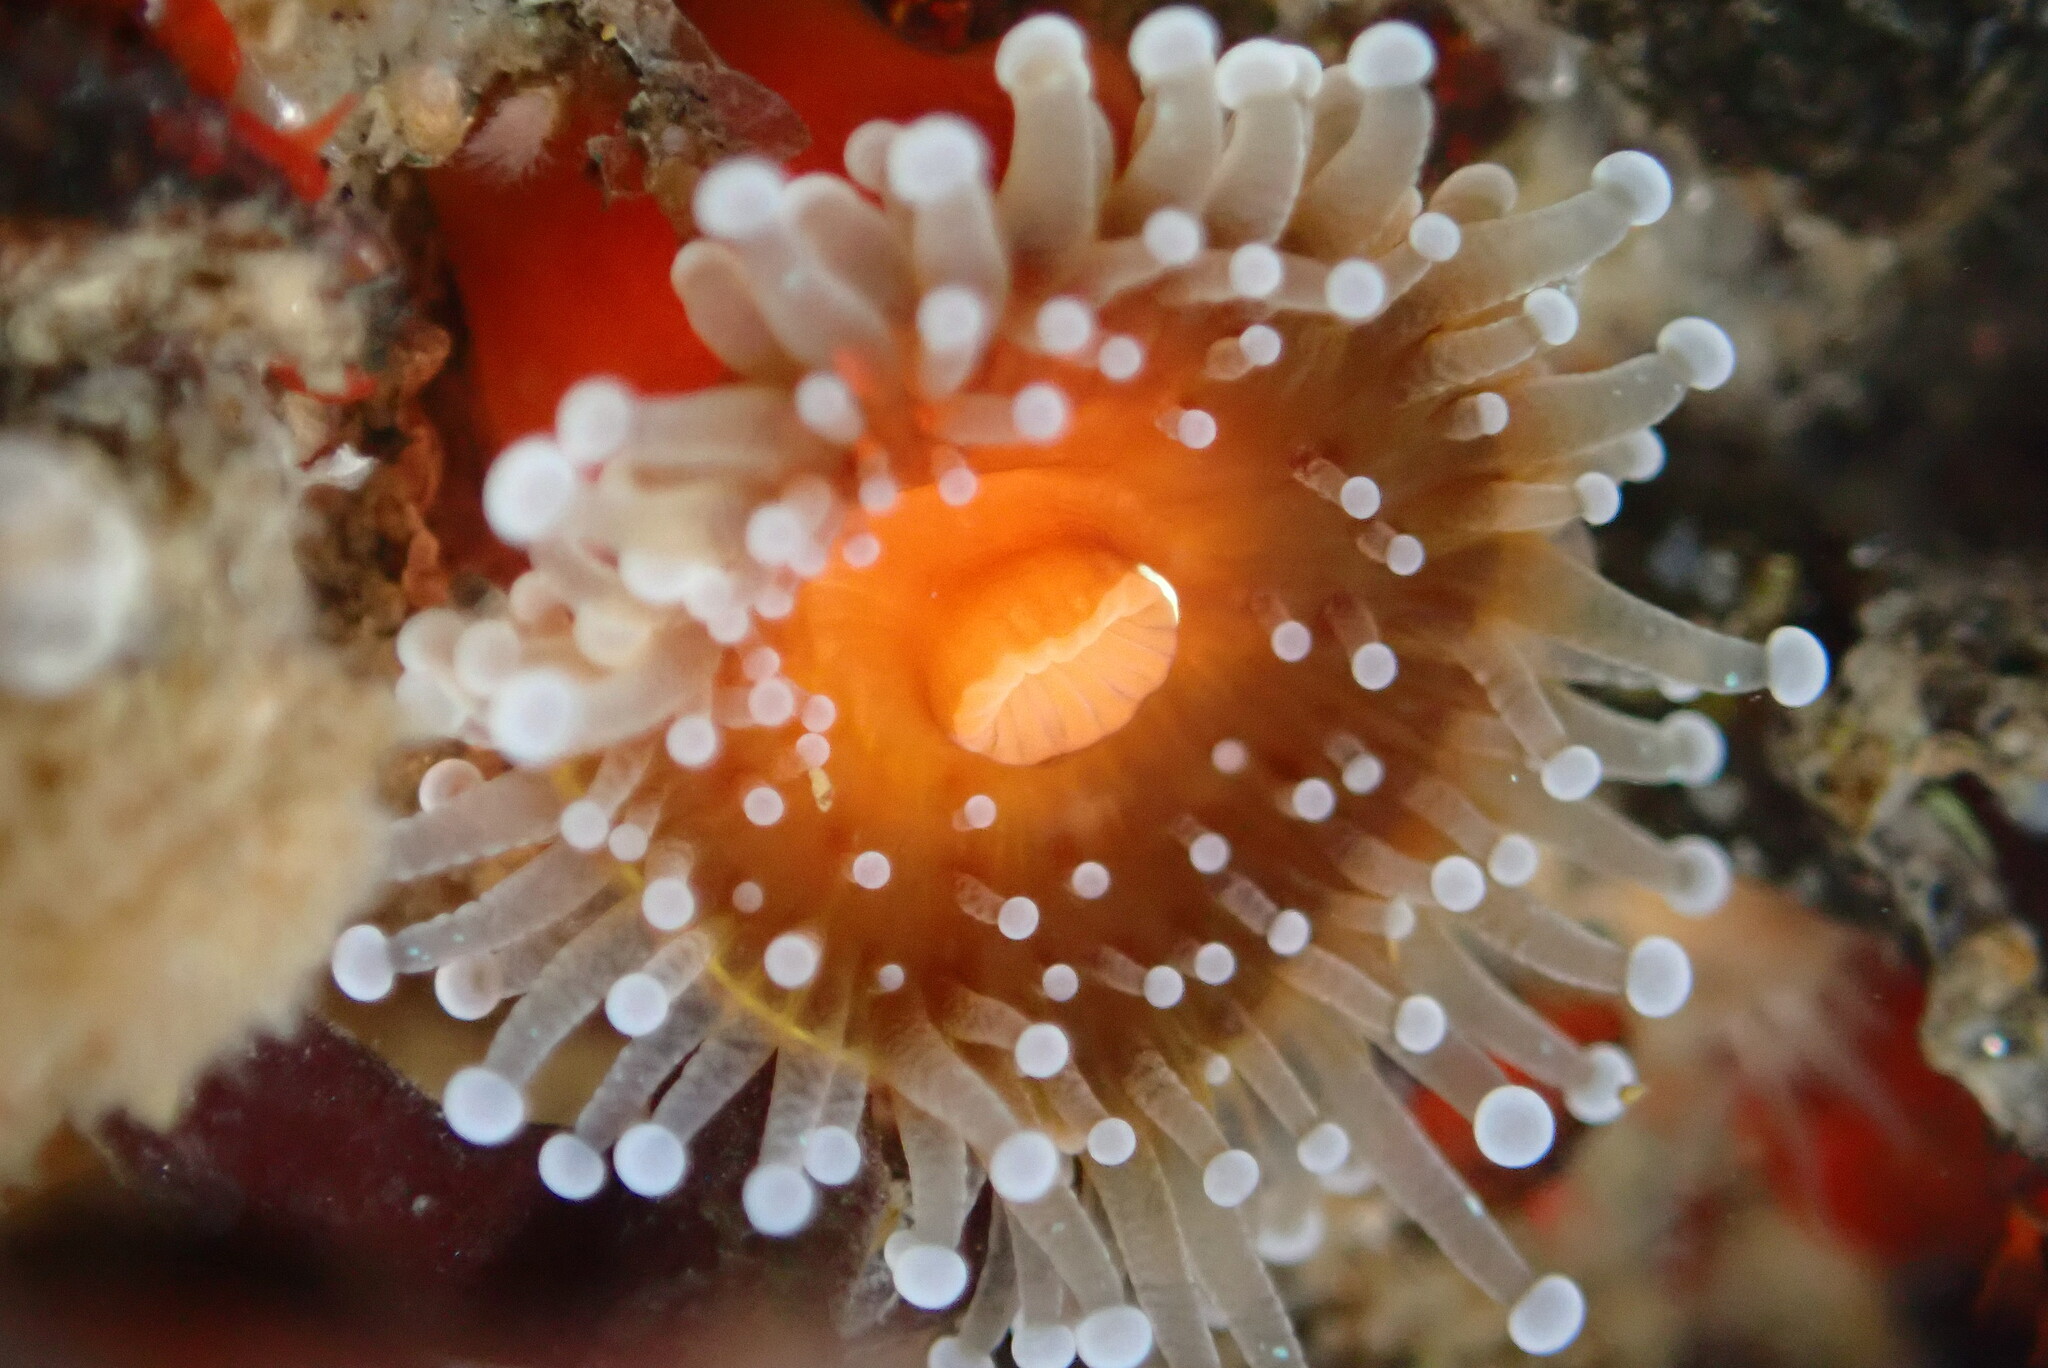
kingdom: Animalia
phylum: Cnidaria
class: Anthozoa
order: Corallimorpharia
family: Corallimorphidae
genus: Corynactis
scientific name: Corynactis californica
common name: Strawberry corallimorpharian
